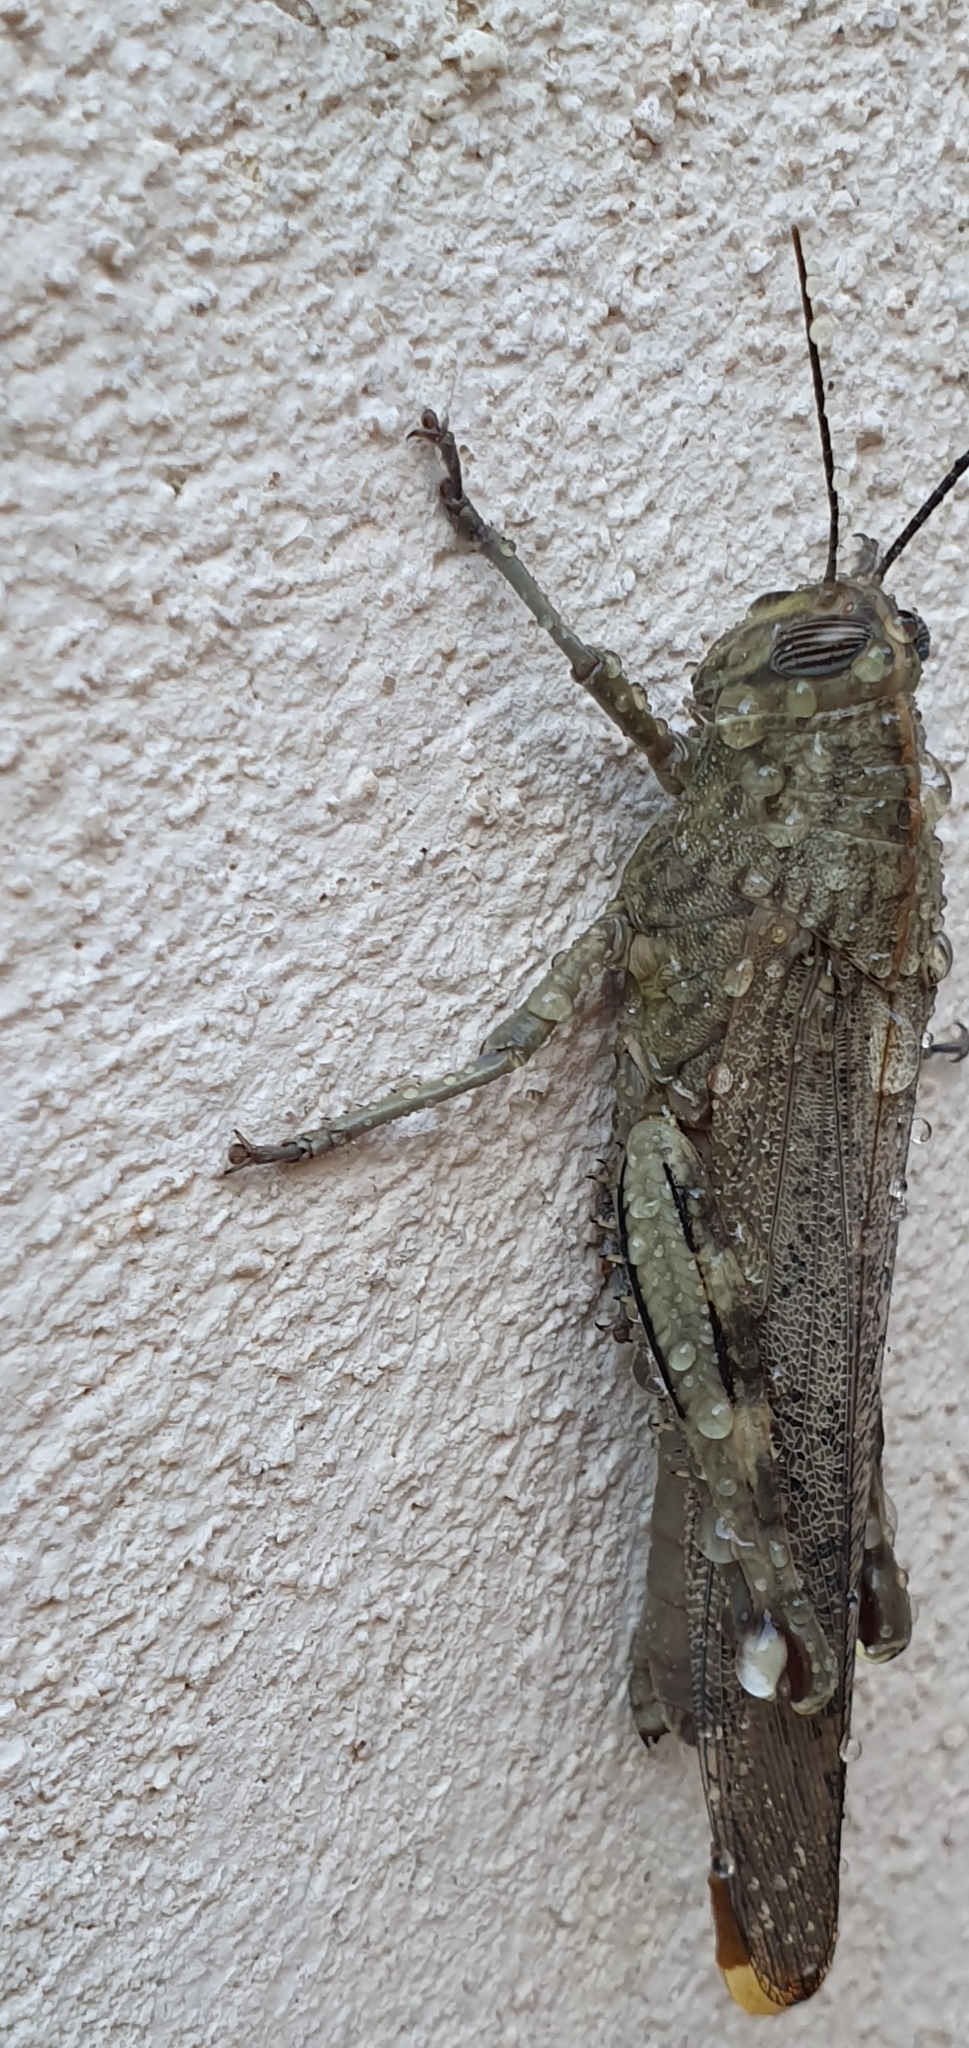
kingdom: Animalia
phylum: Arthropoda
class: Insecta
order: Orthoptera
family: Acrididae
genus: Anacridium
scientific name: Anacridium aegyptium
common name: Egyptian grasshopper
